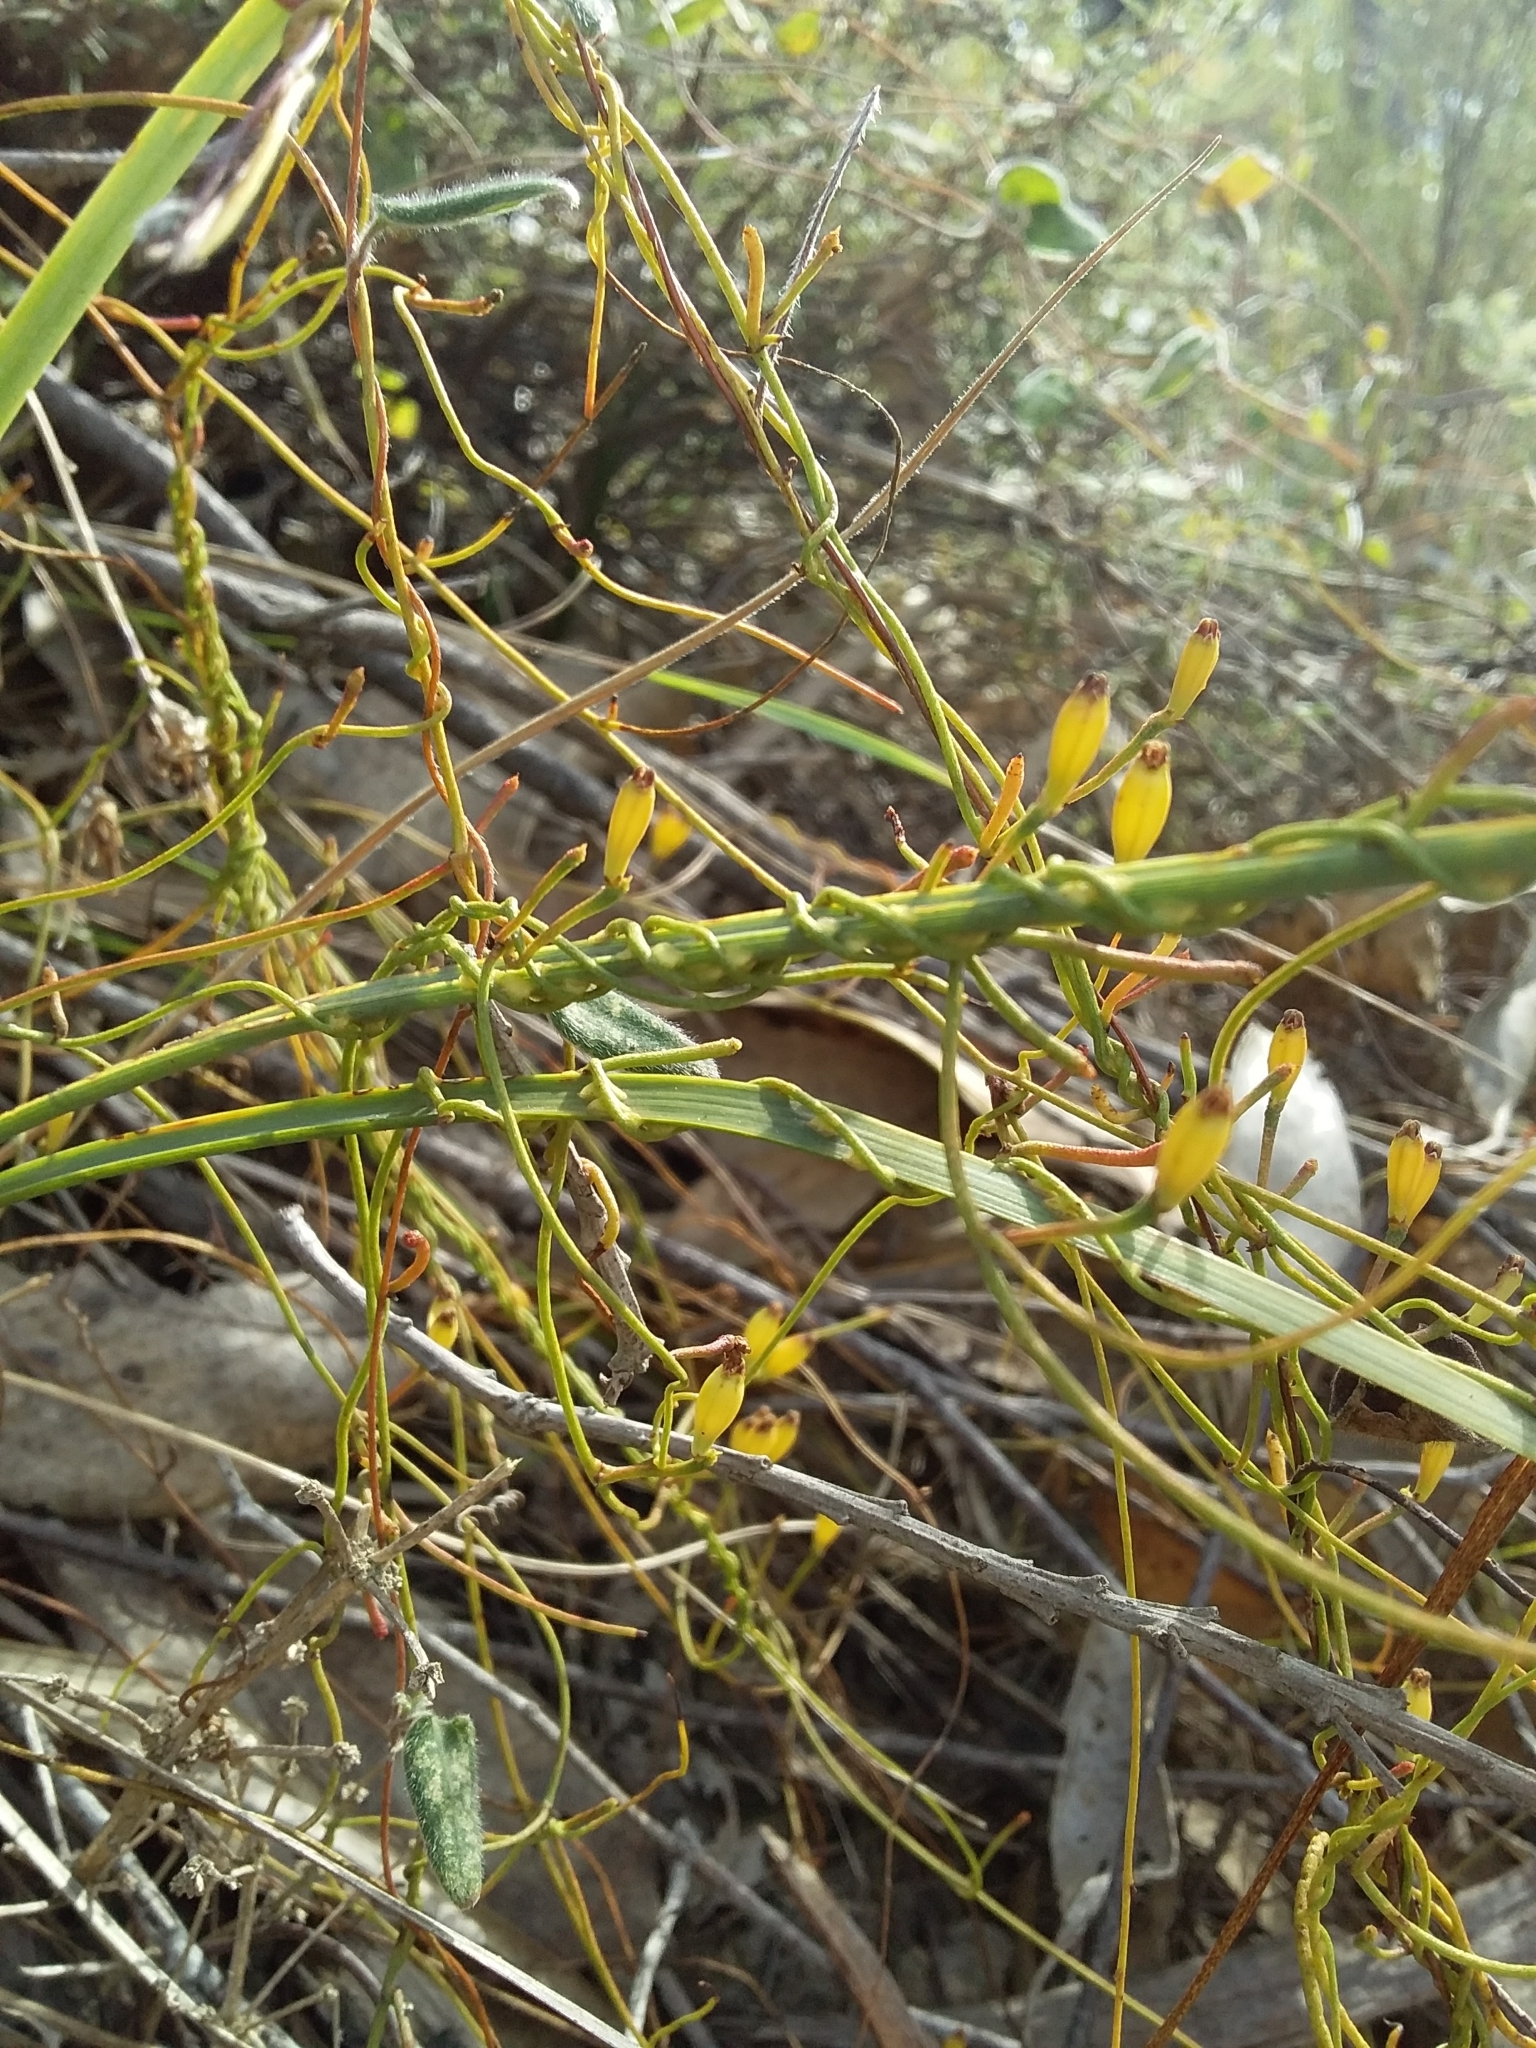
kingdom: Plantae
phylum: Tracheophyta
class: Magnoliopsida
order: Laurales
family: Lauraceae
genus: Cassytha
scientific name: Cassytha glabella
